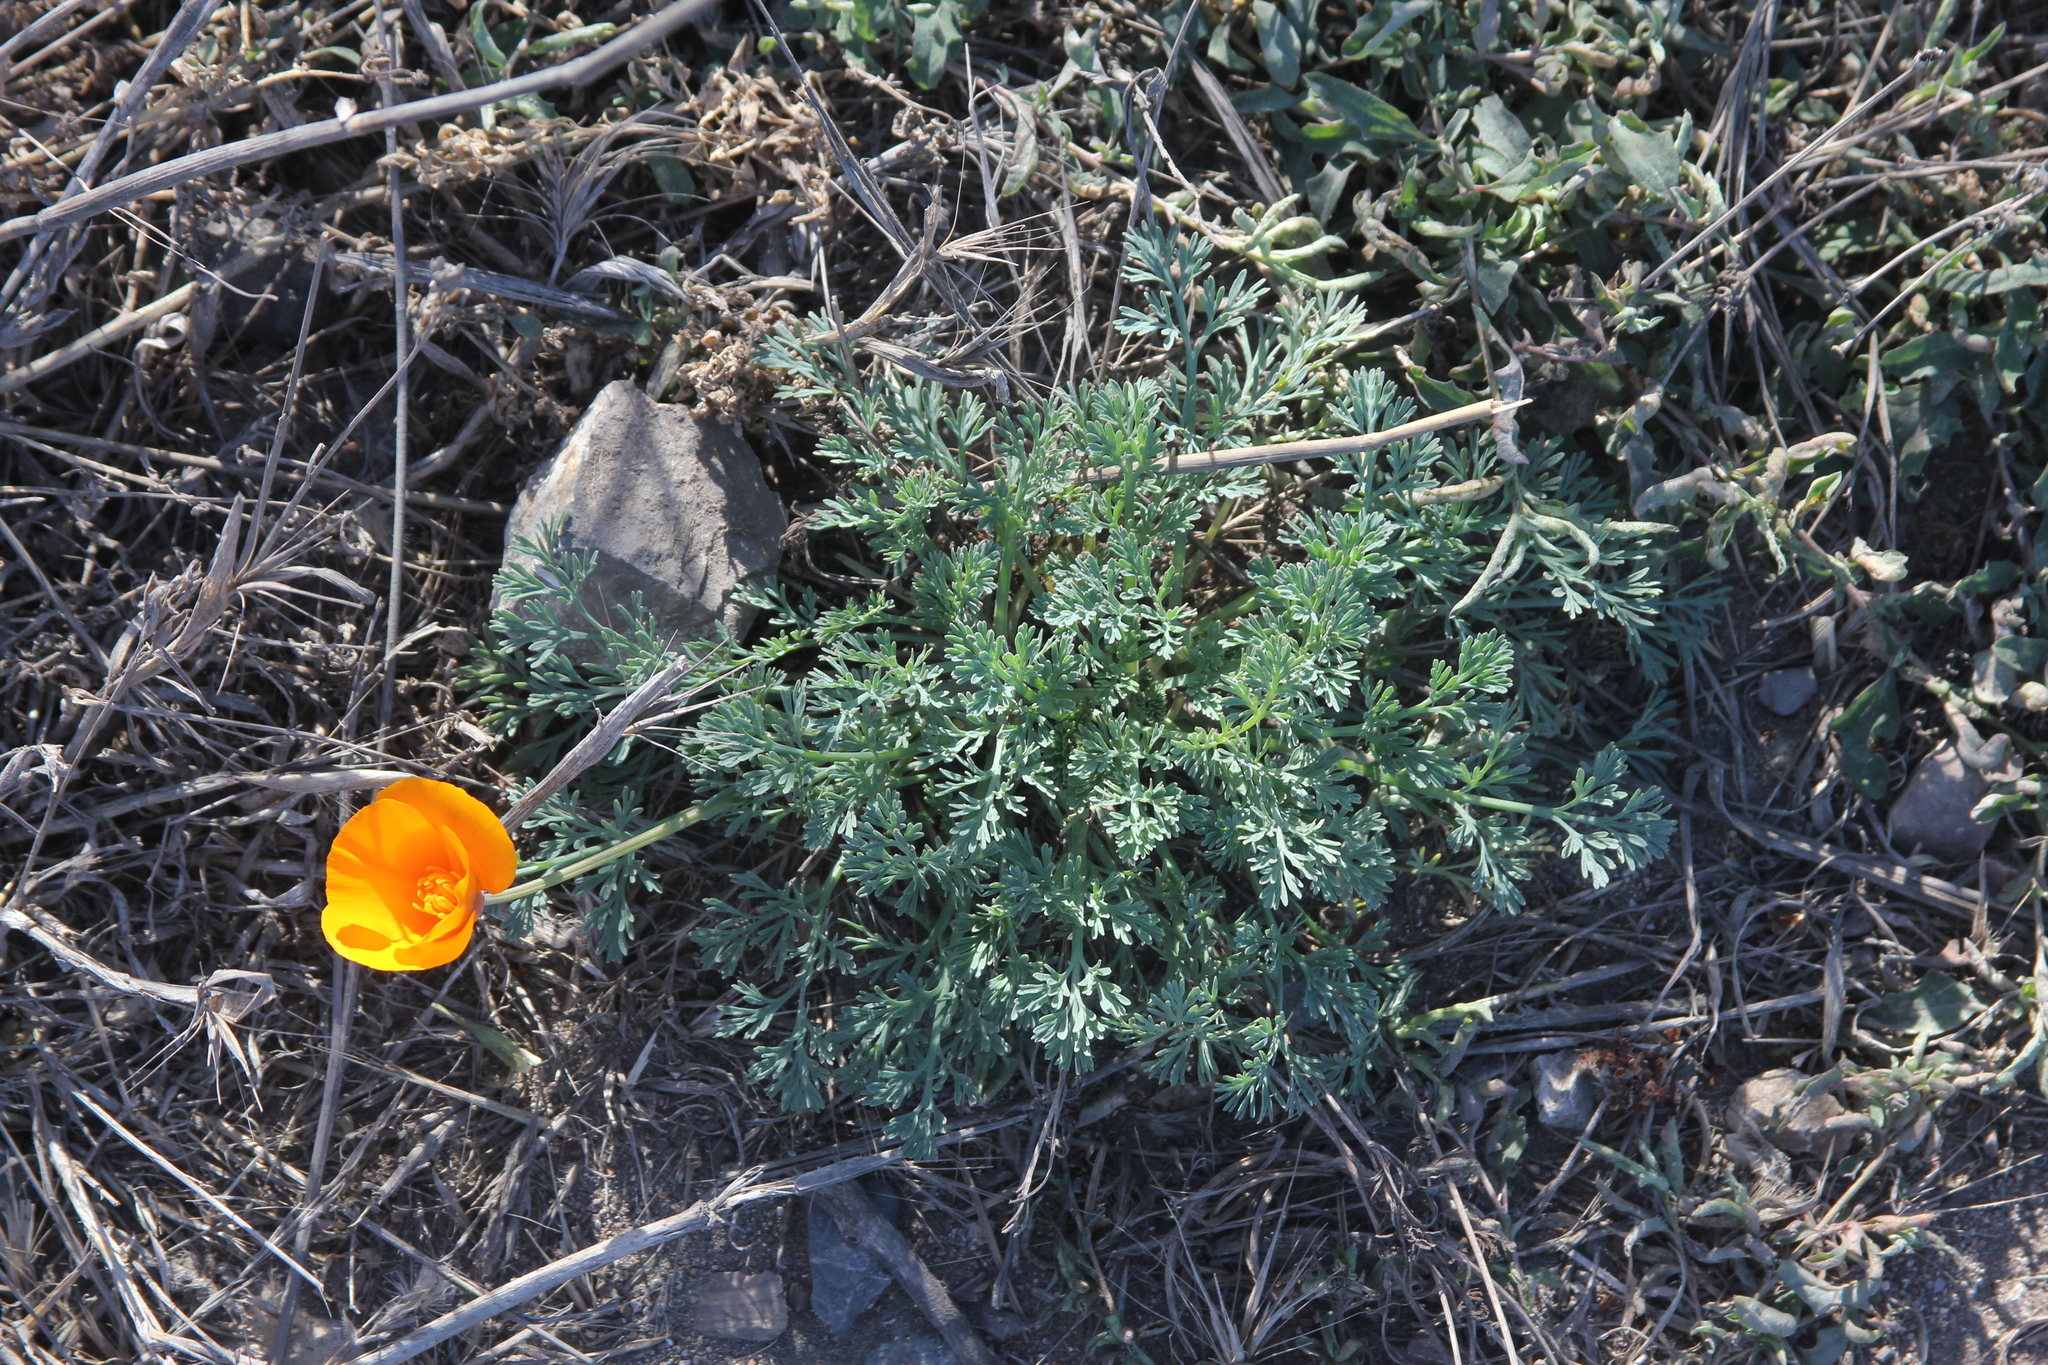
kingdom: Plantae
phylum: Tracheophyta
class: Magnoliopsida
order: Ranunculales
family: Papaveraceae
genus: Eschscholzia
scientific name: Eschscholzia californica
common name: California poppy
